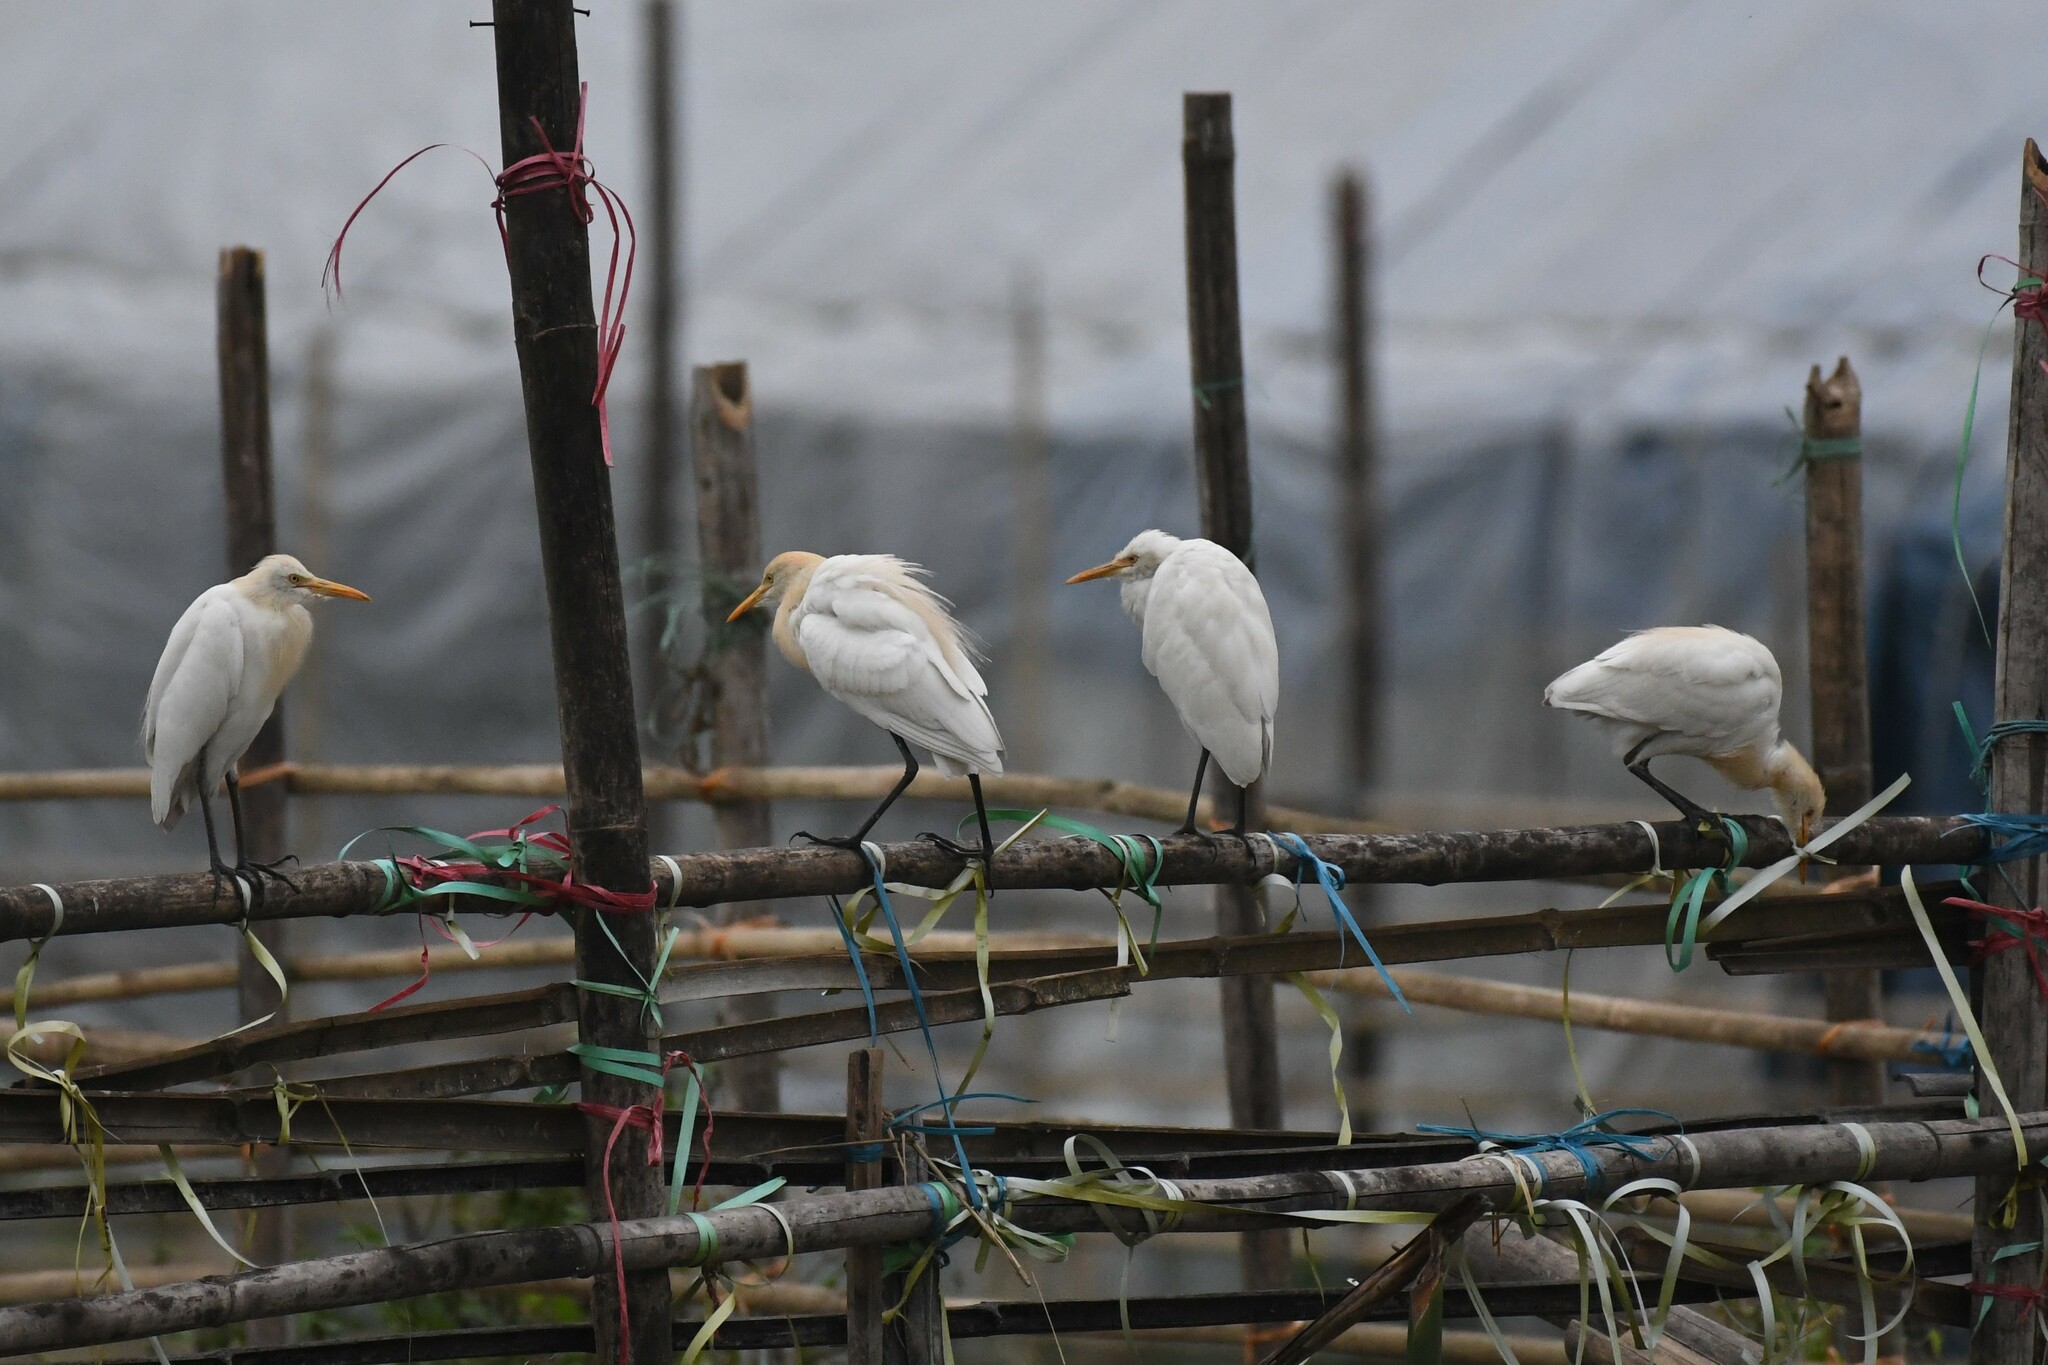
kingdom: Animalia
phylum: Chordata
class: Aves
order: Pelecaniformes
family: Ardeidae
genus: Bubulcus
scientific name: Bubulcus coromandus
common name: Eastern cattle egret
